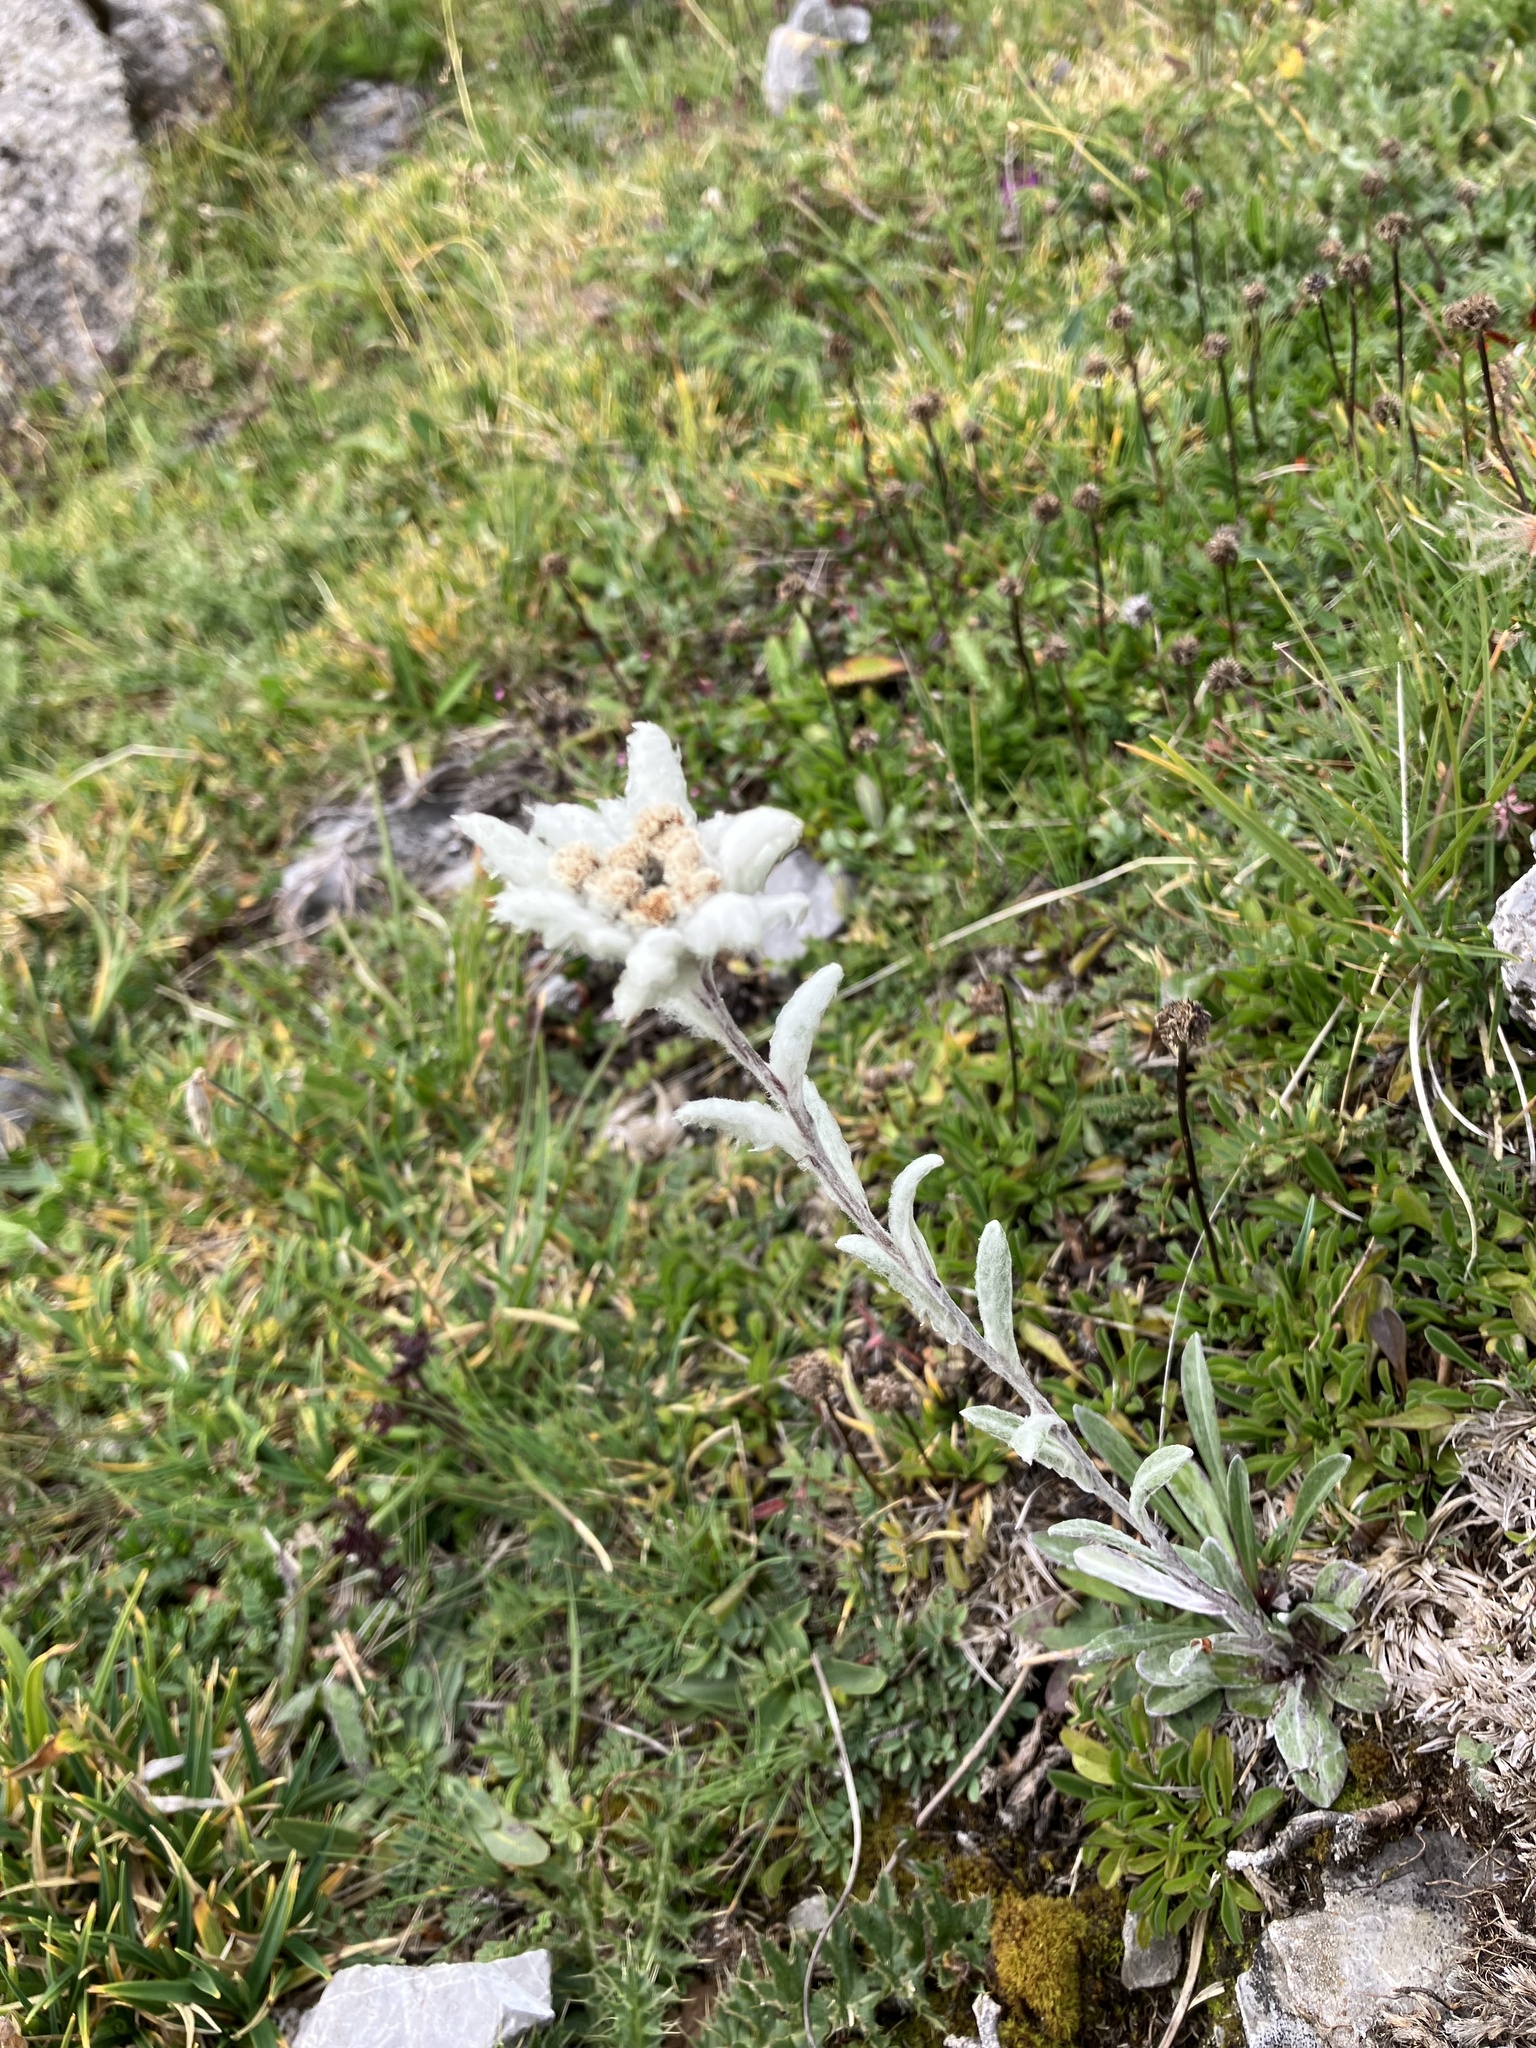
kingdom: Plantae
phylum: Tracheophyta
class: Magnoliopsida
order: Asterales
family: Asteraceae
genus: Leontopodium
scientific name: Leontopodium nivale
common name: Edelweiss
